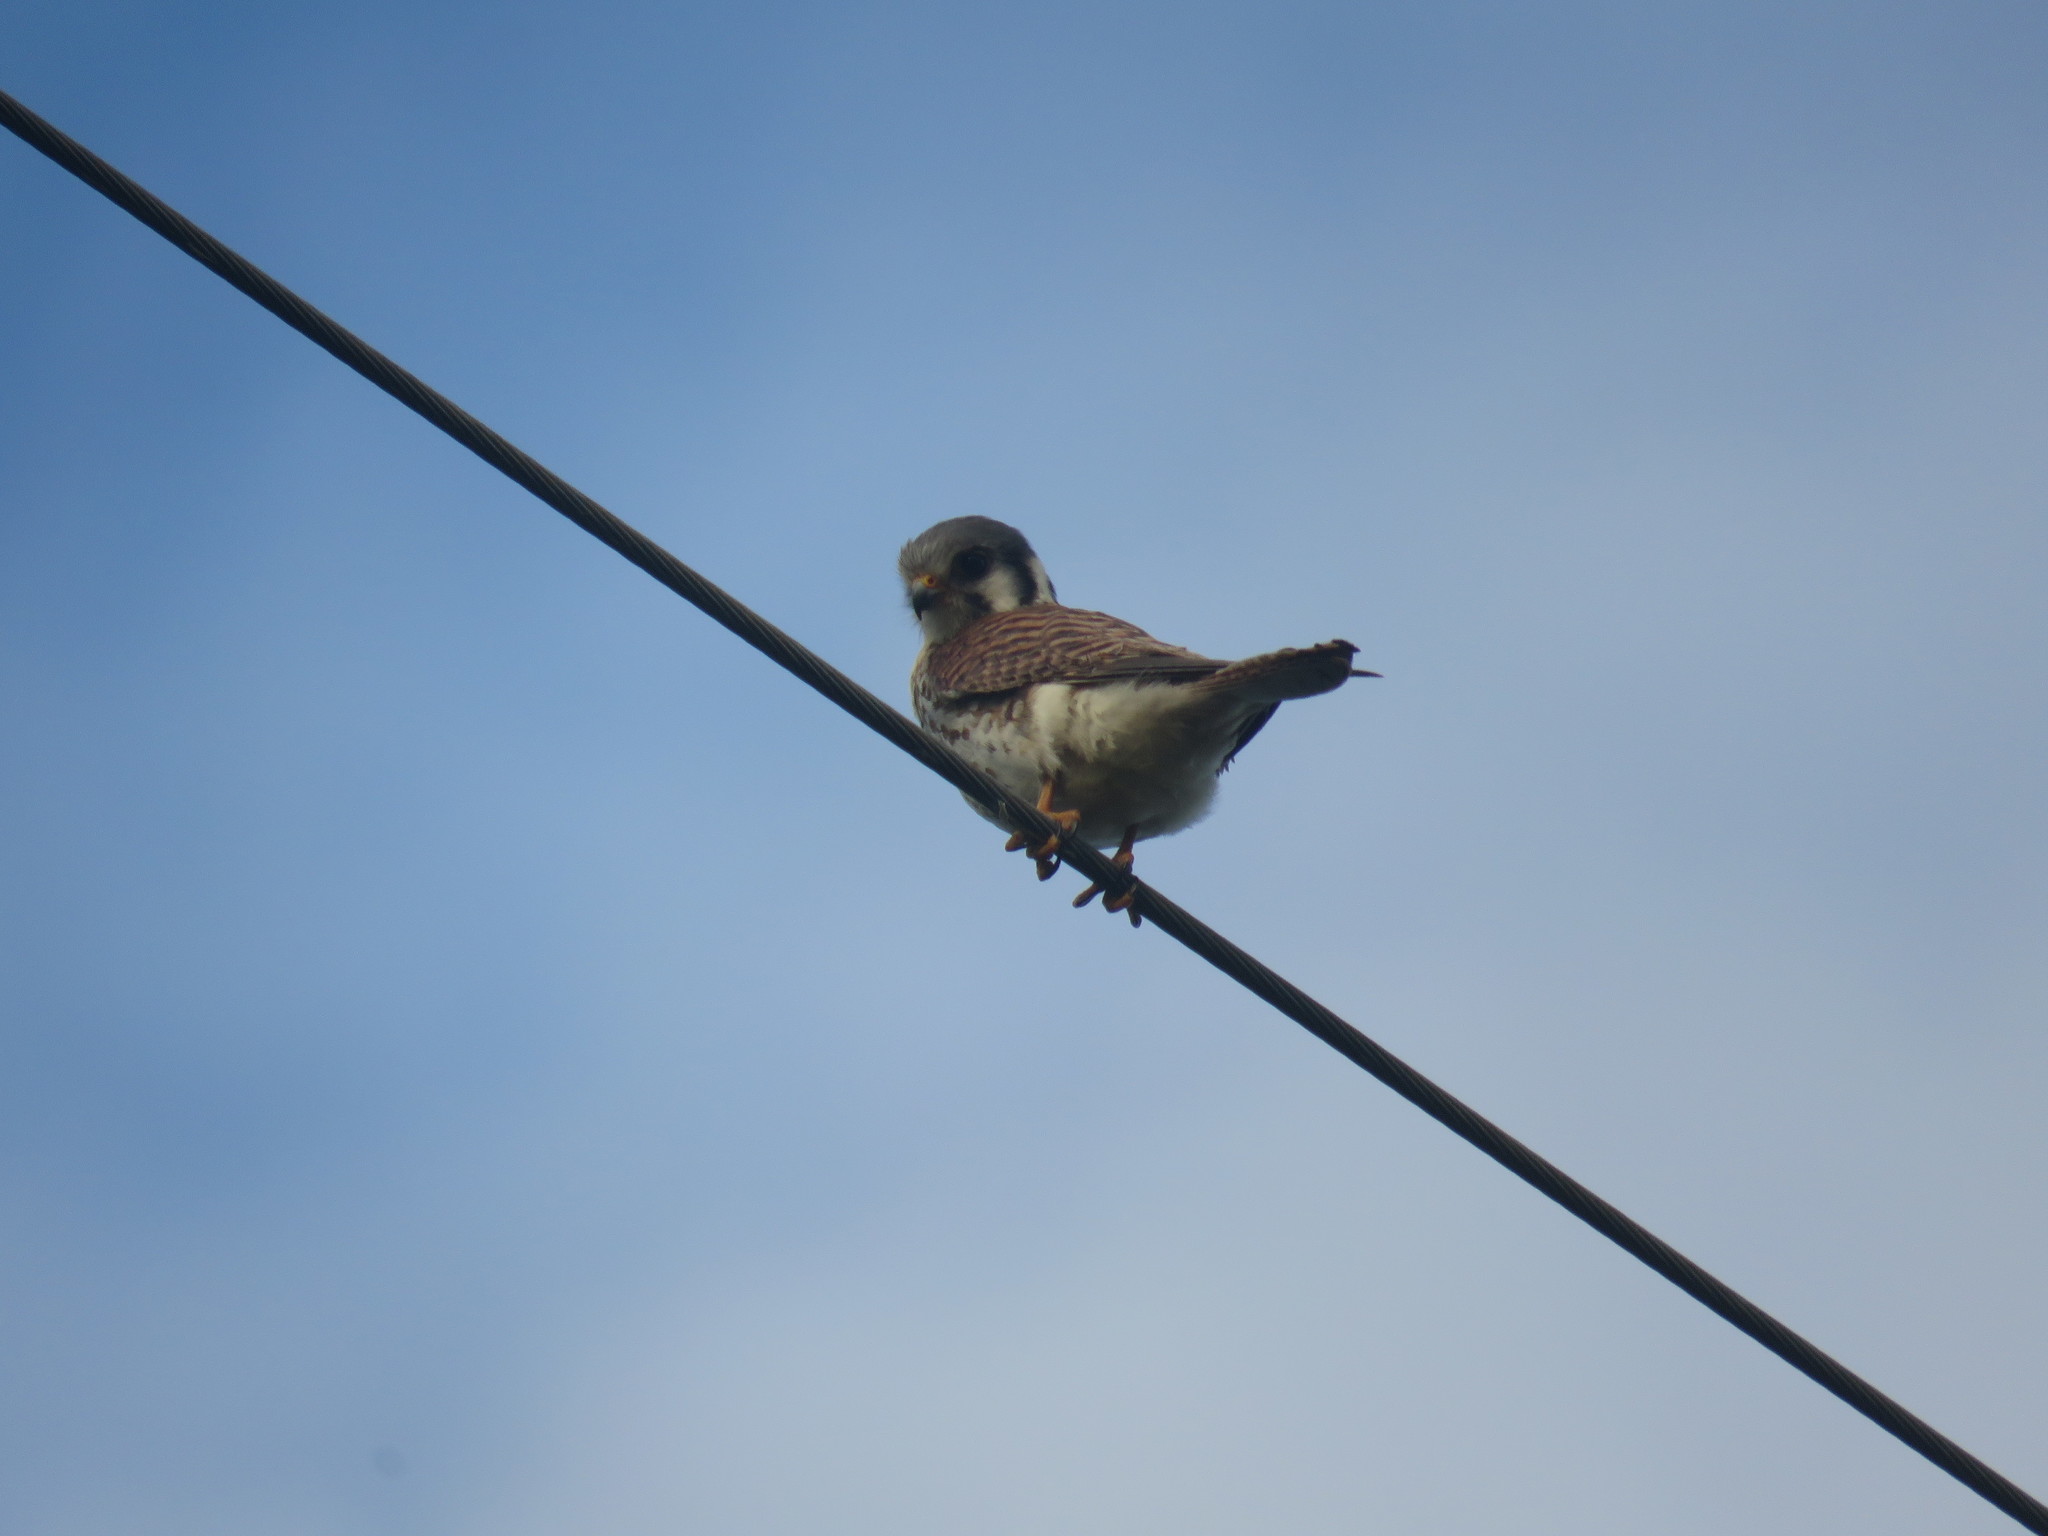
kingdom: Animalia
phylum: Chordata
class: Aves
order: Falconiformes
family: Falconidae
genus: Falco
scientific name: Falco sparverius
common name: American kestrel
